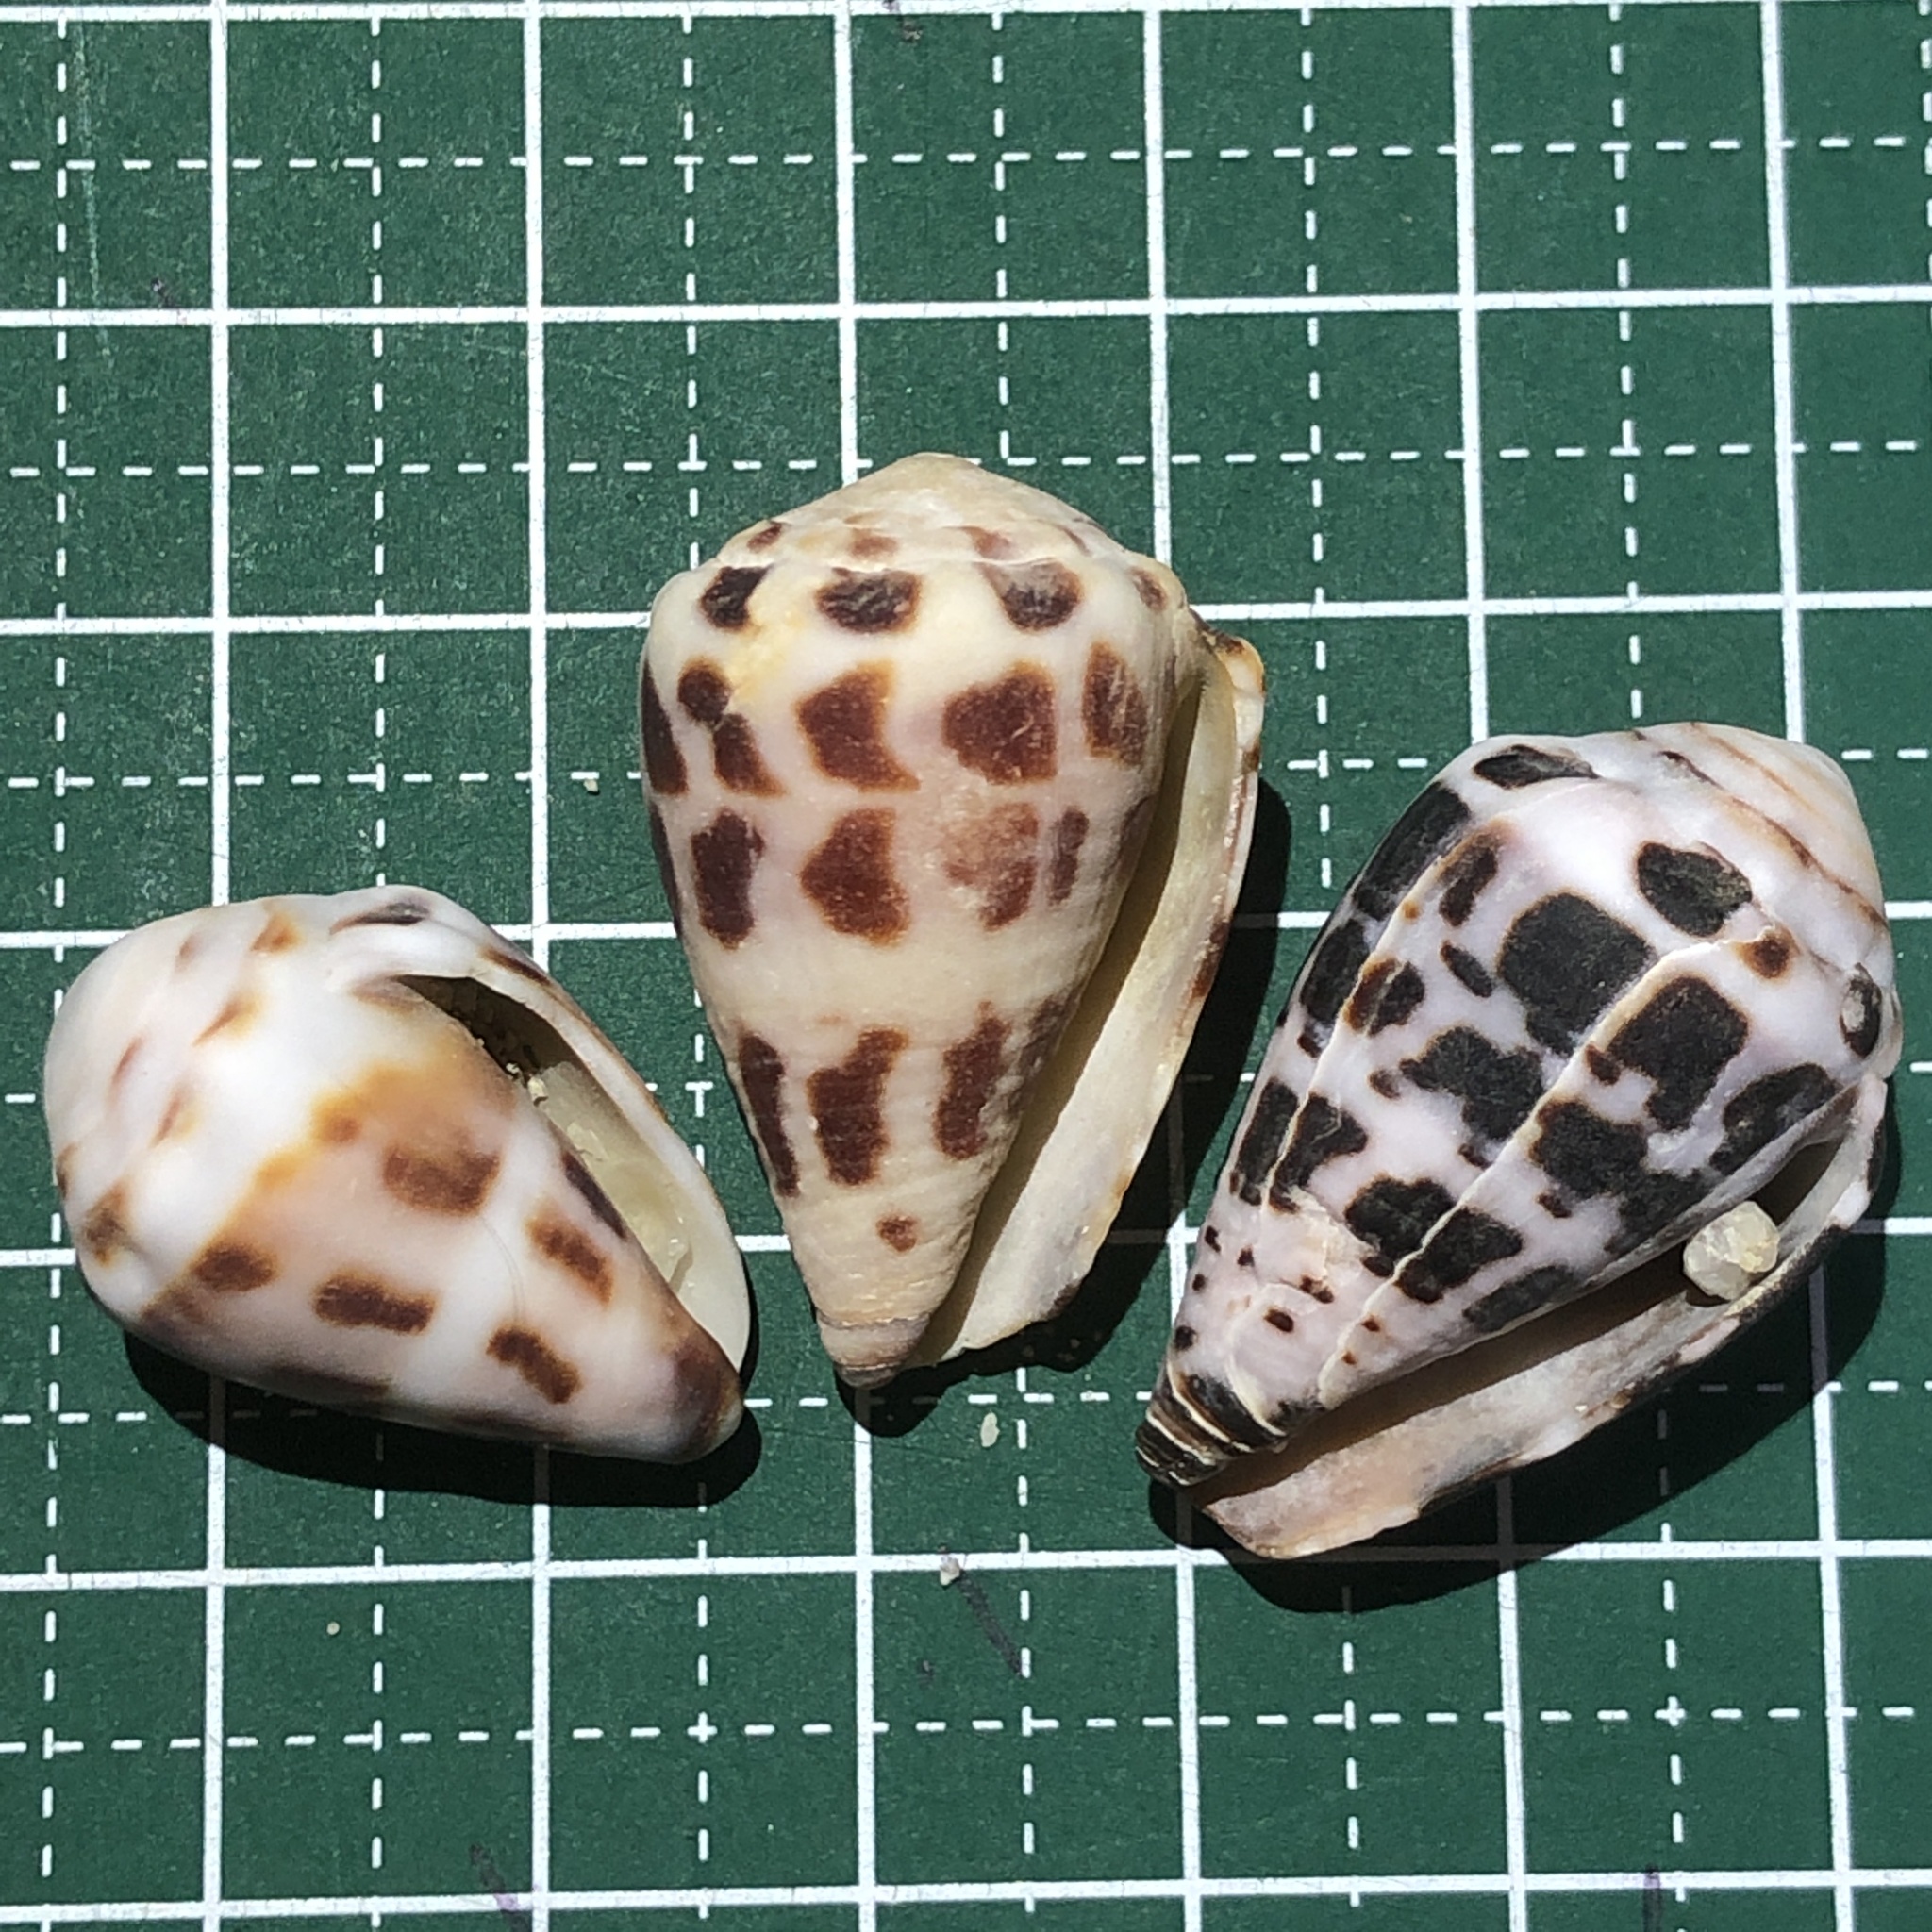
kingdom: Animalia
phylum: Mollusca
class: Gastropoda
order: Neogastropoda
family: Conidae
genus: Conus
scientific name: Conus ebraeus
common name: Hebrew cone
